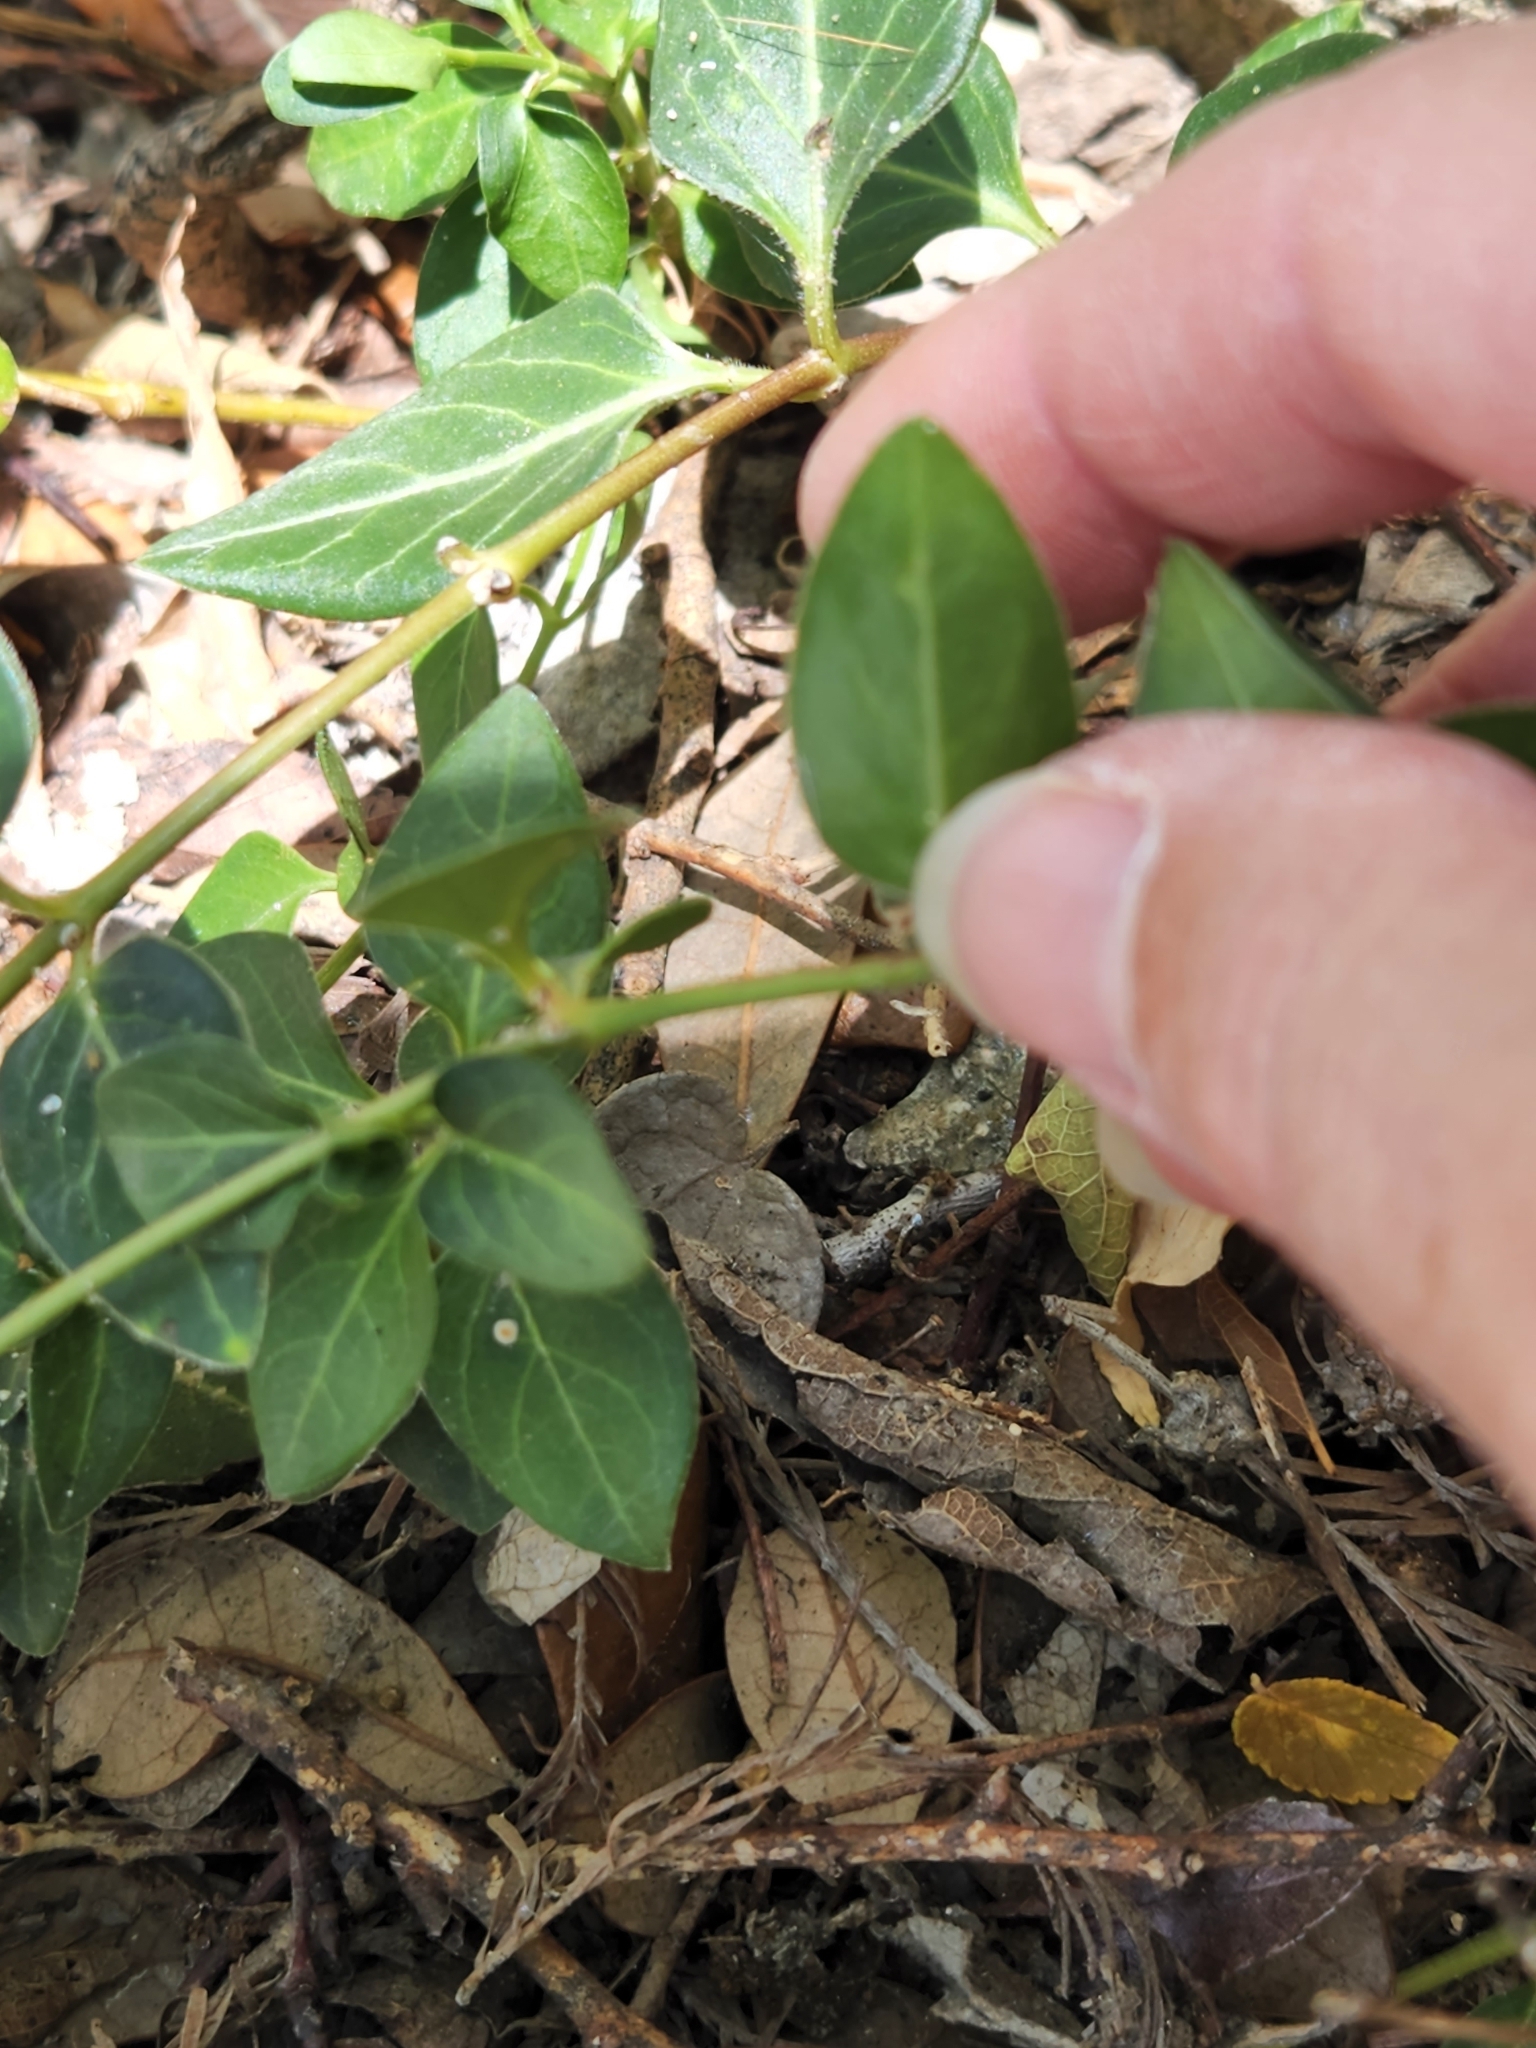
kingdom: Plantae
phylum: Tracheophyta
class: Magnoliopsida
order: Gentianales
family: Apocynaceae
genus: Vinca
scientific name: Vinca major
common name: Greater periwinkle
